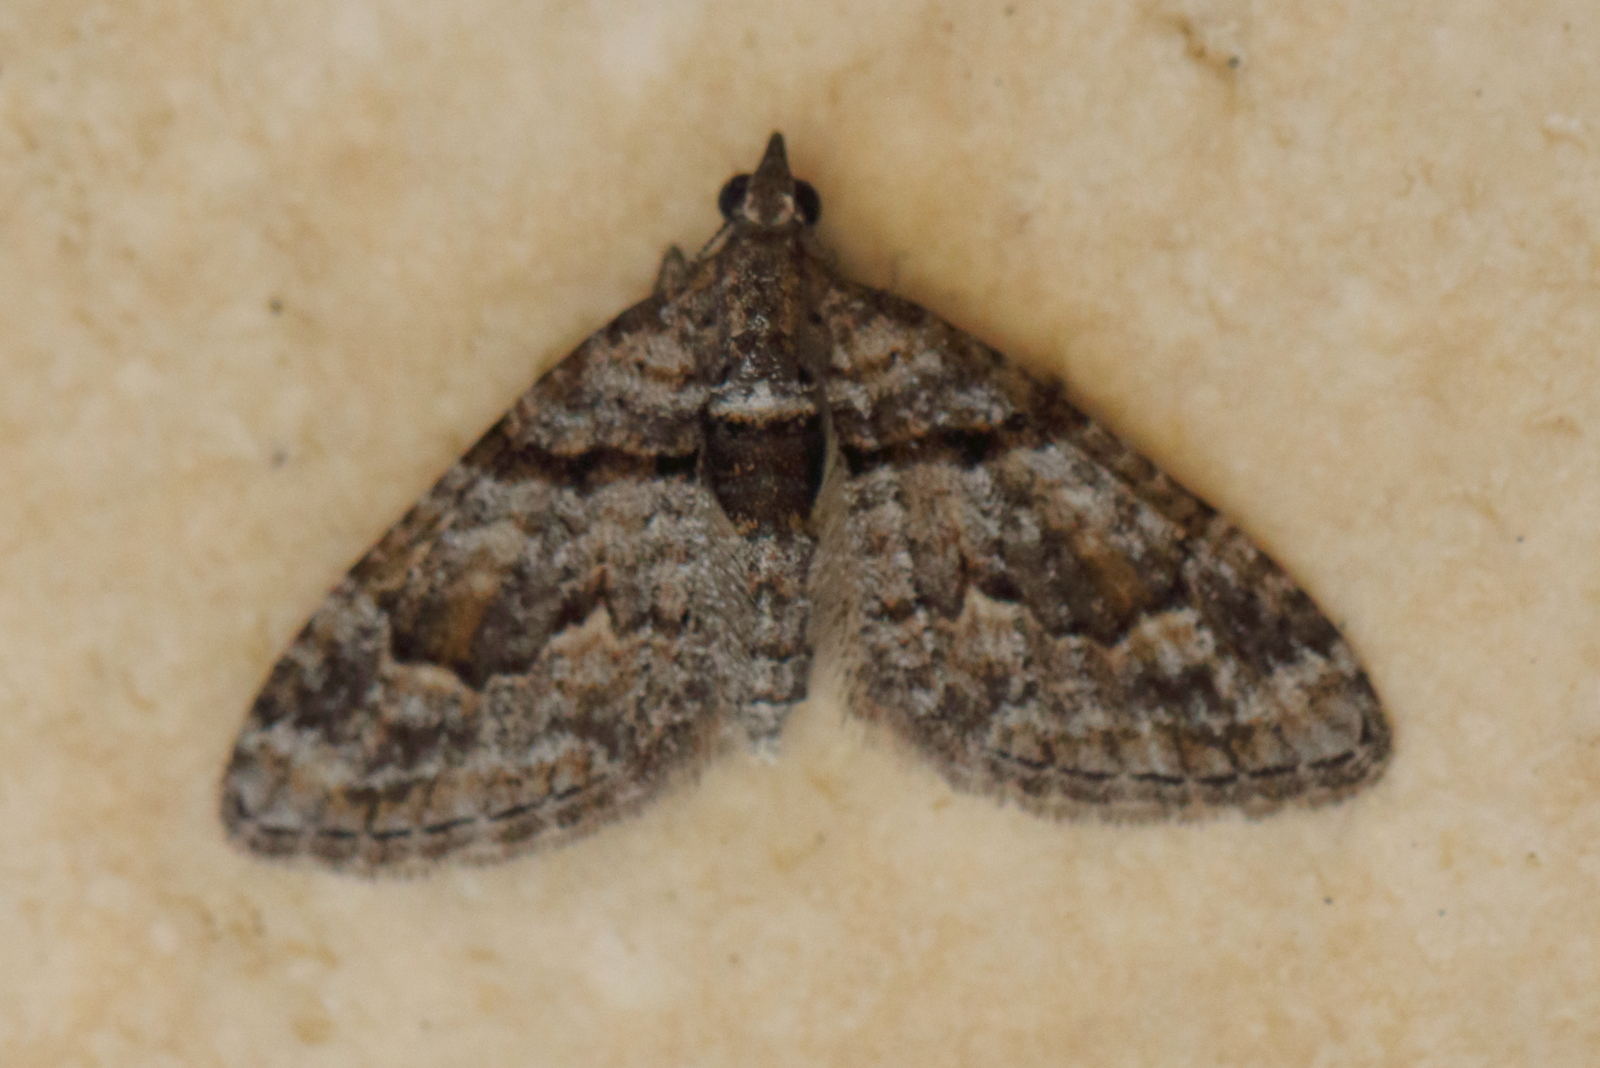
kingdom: Animalia
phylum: Arthropoda
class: Insecta
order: Lepidoptera
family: Geometridae
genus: Phrissogonus
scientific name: Phrissogonus laticostata
